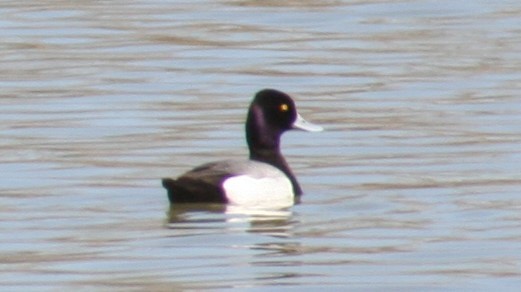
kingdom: Animalia
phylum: Chordata
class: Aves
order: Anseriformes
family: Anatidae
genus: Aythya
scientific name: Aythya affinis
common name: Lesser scaup
